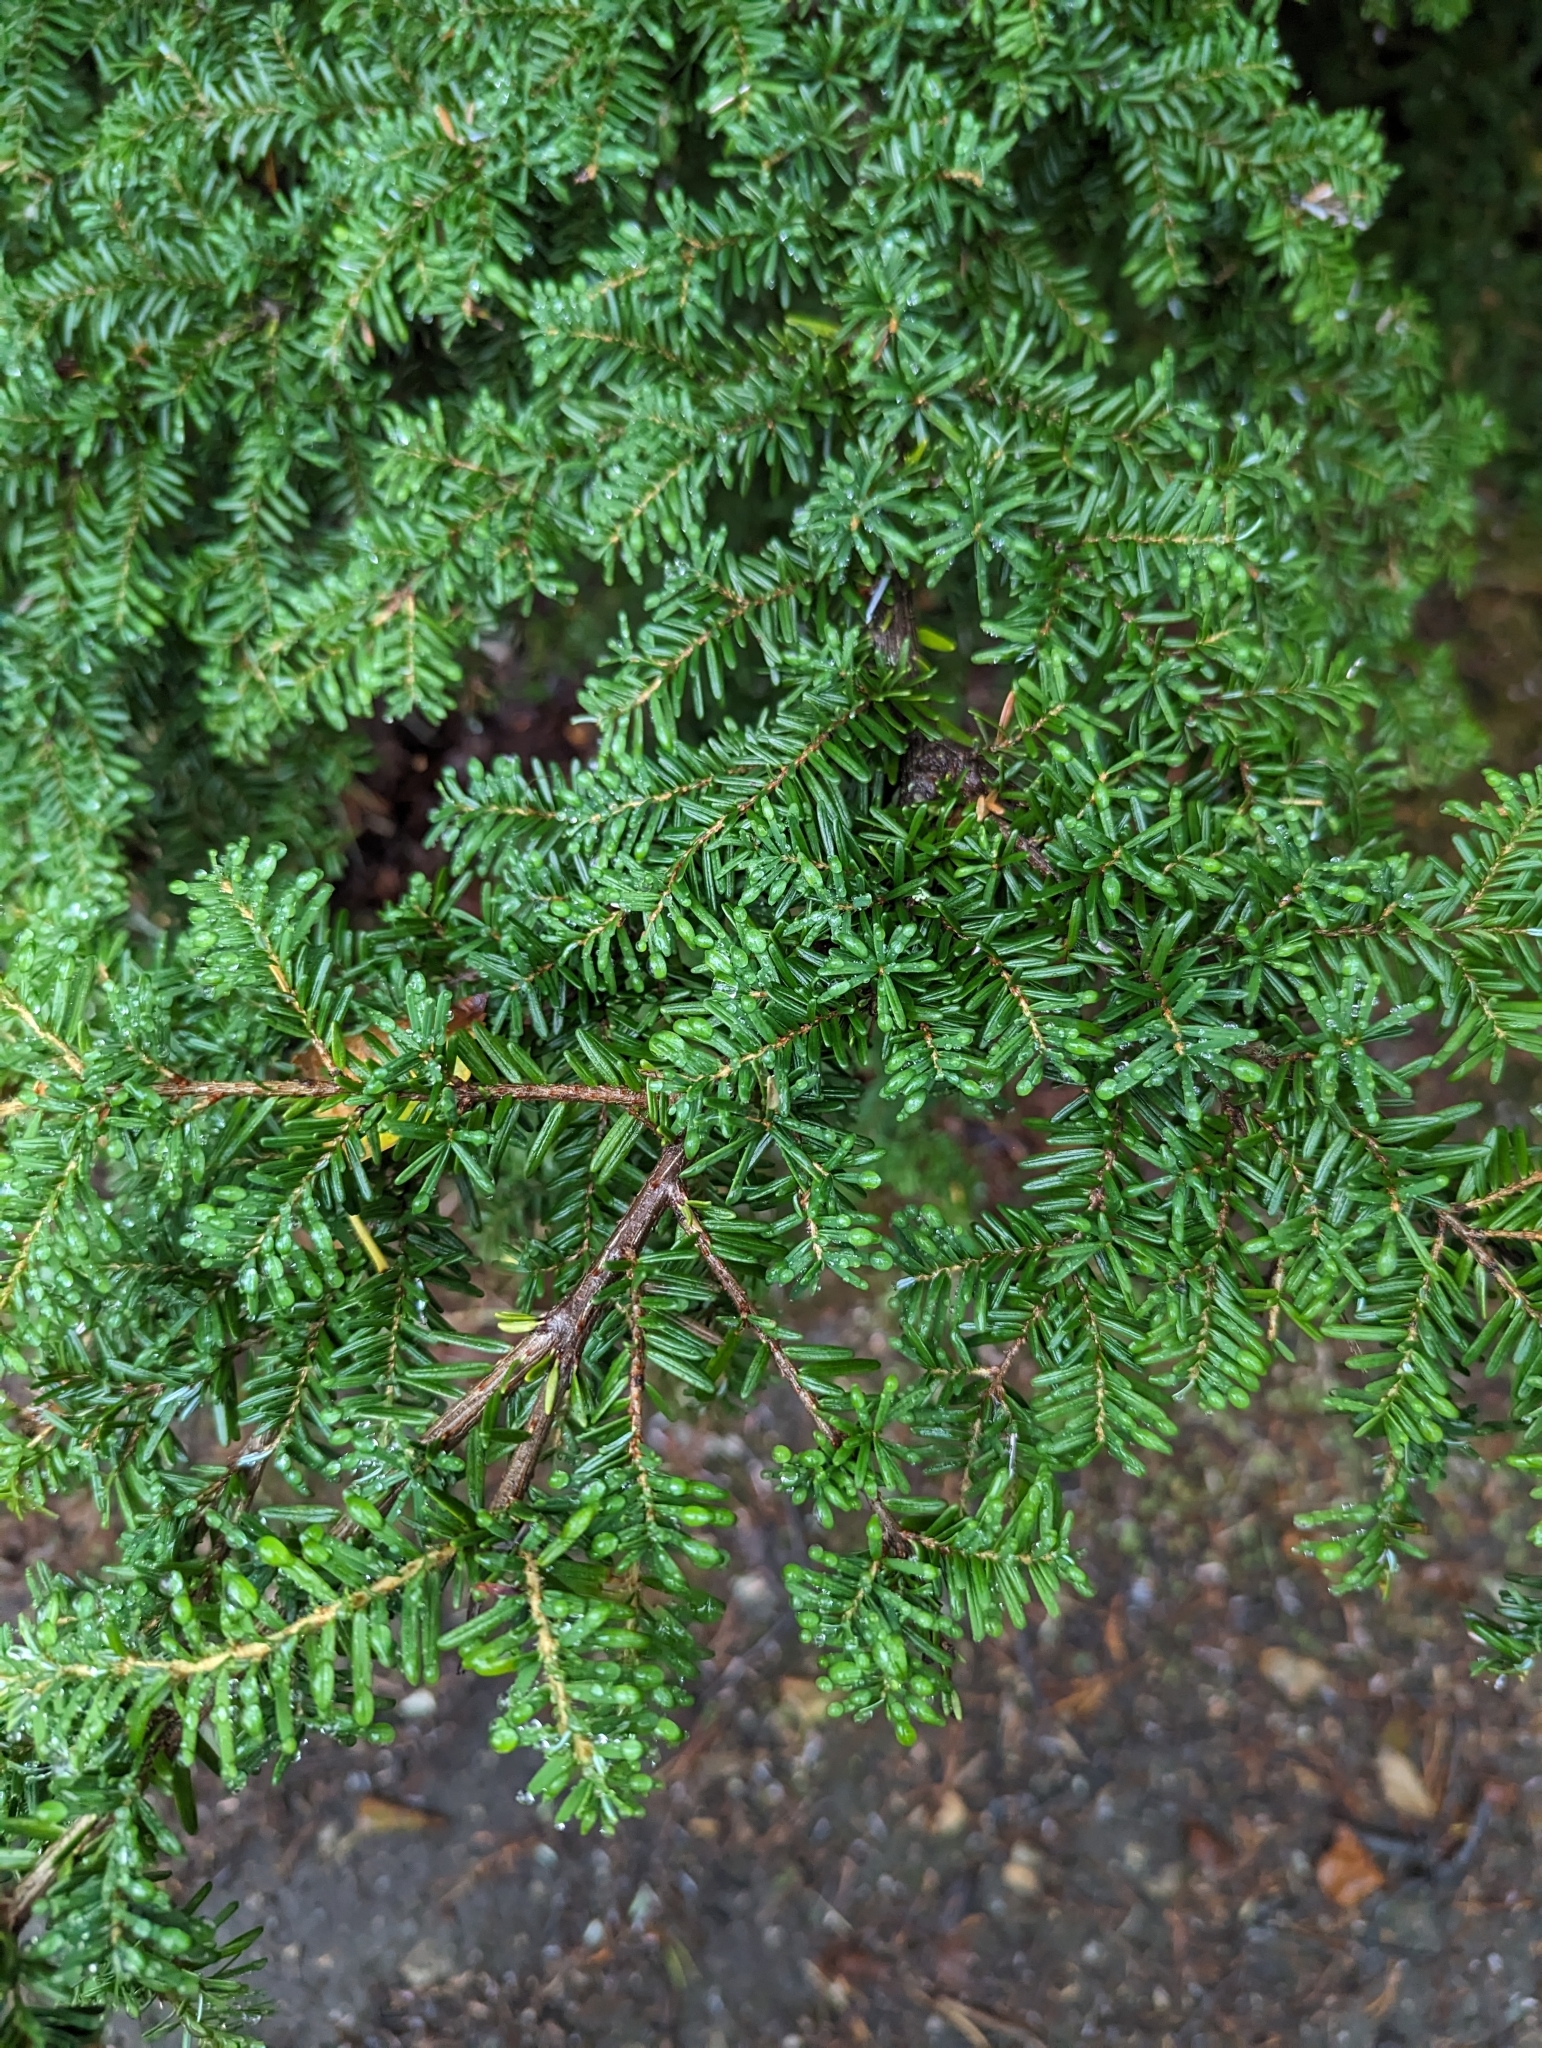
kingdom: Plantae
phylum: Tracheophyta
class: Pinopsida
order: Pinales
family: Pinaceae
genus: Tsuga
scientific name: Tsuga heterophylla
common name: Western hemlock
